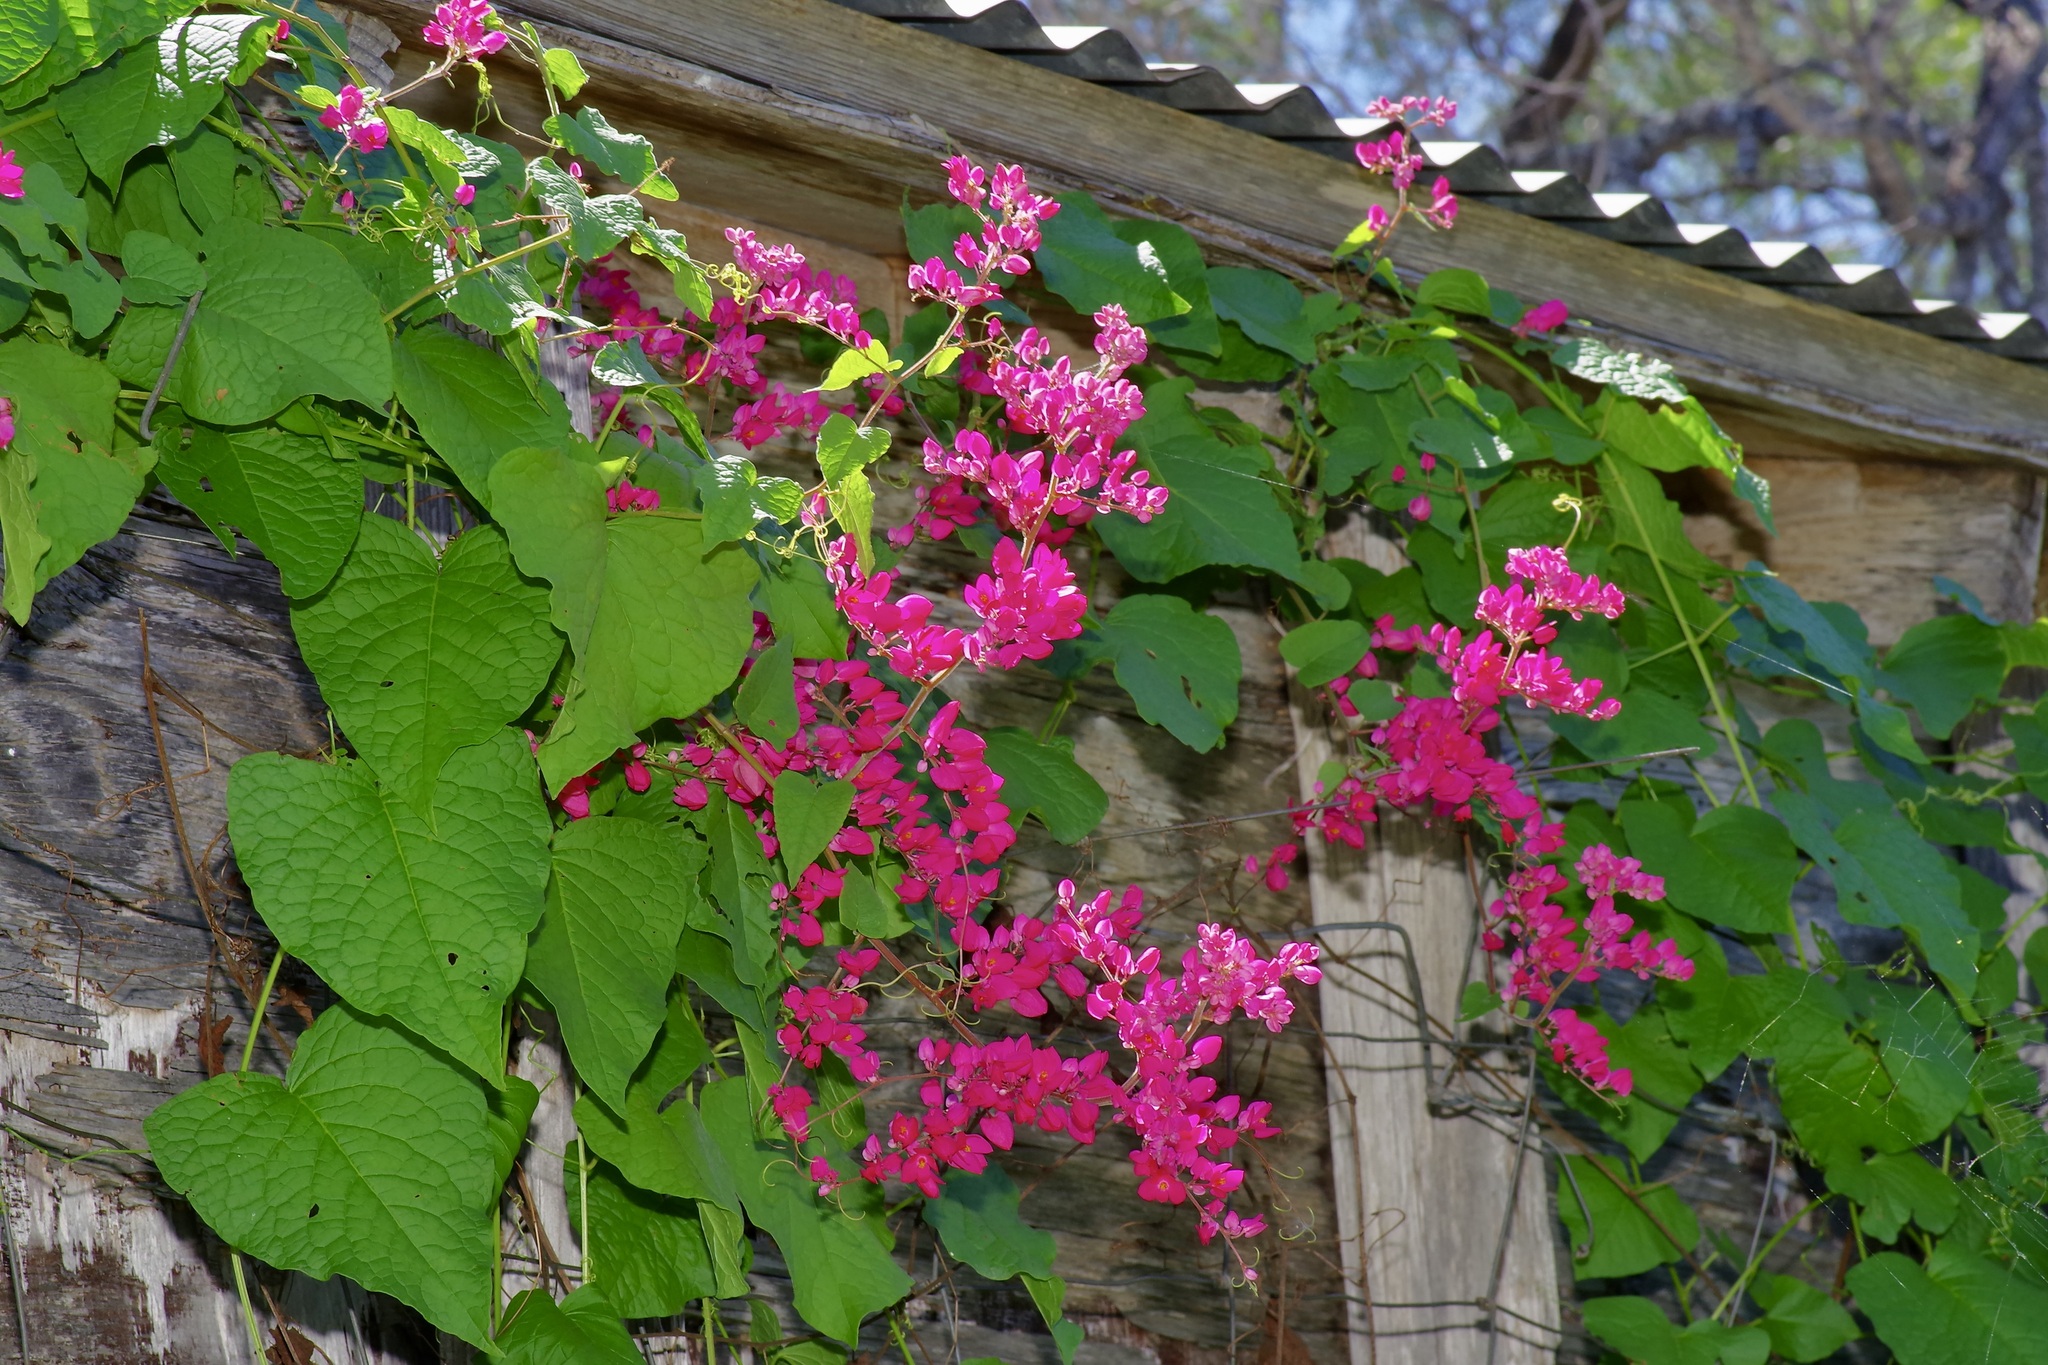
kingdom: Plantae
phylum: Tracheophyta
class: Magnoliopsida
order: Caryophyllales
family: Polygonaceae
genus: Antigonon
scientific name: Antigonon leptopus
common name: Coral vine
